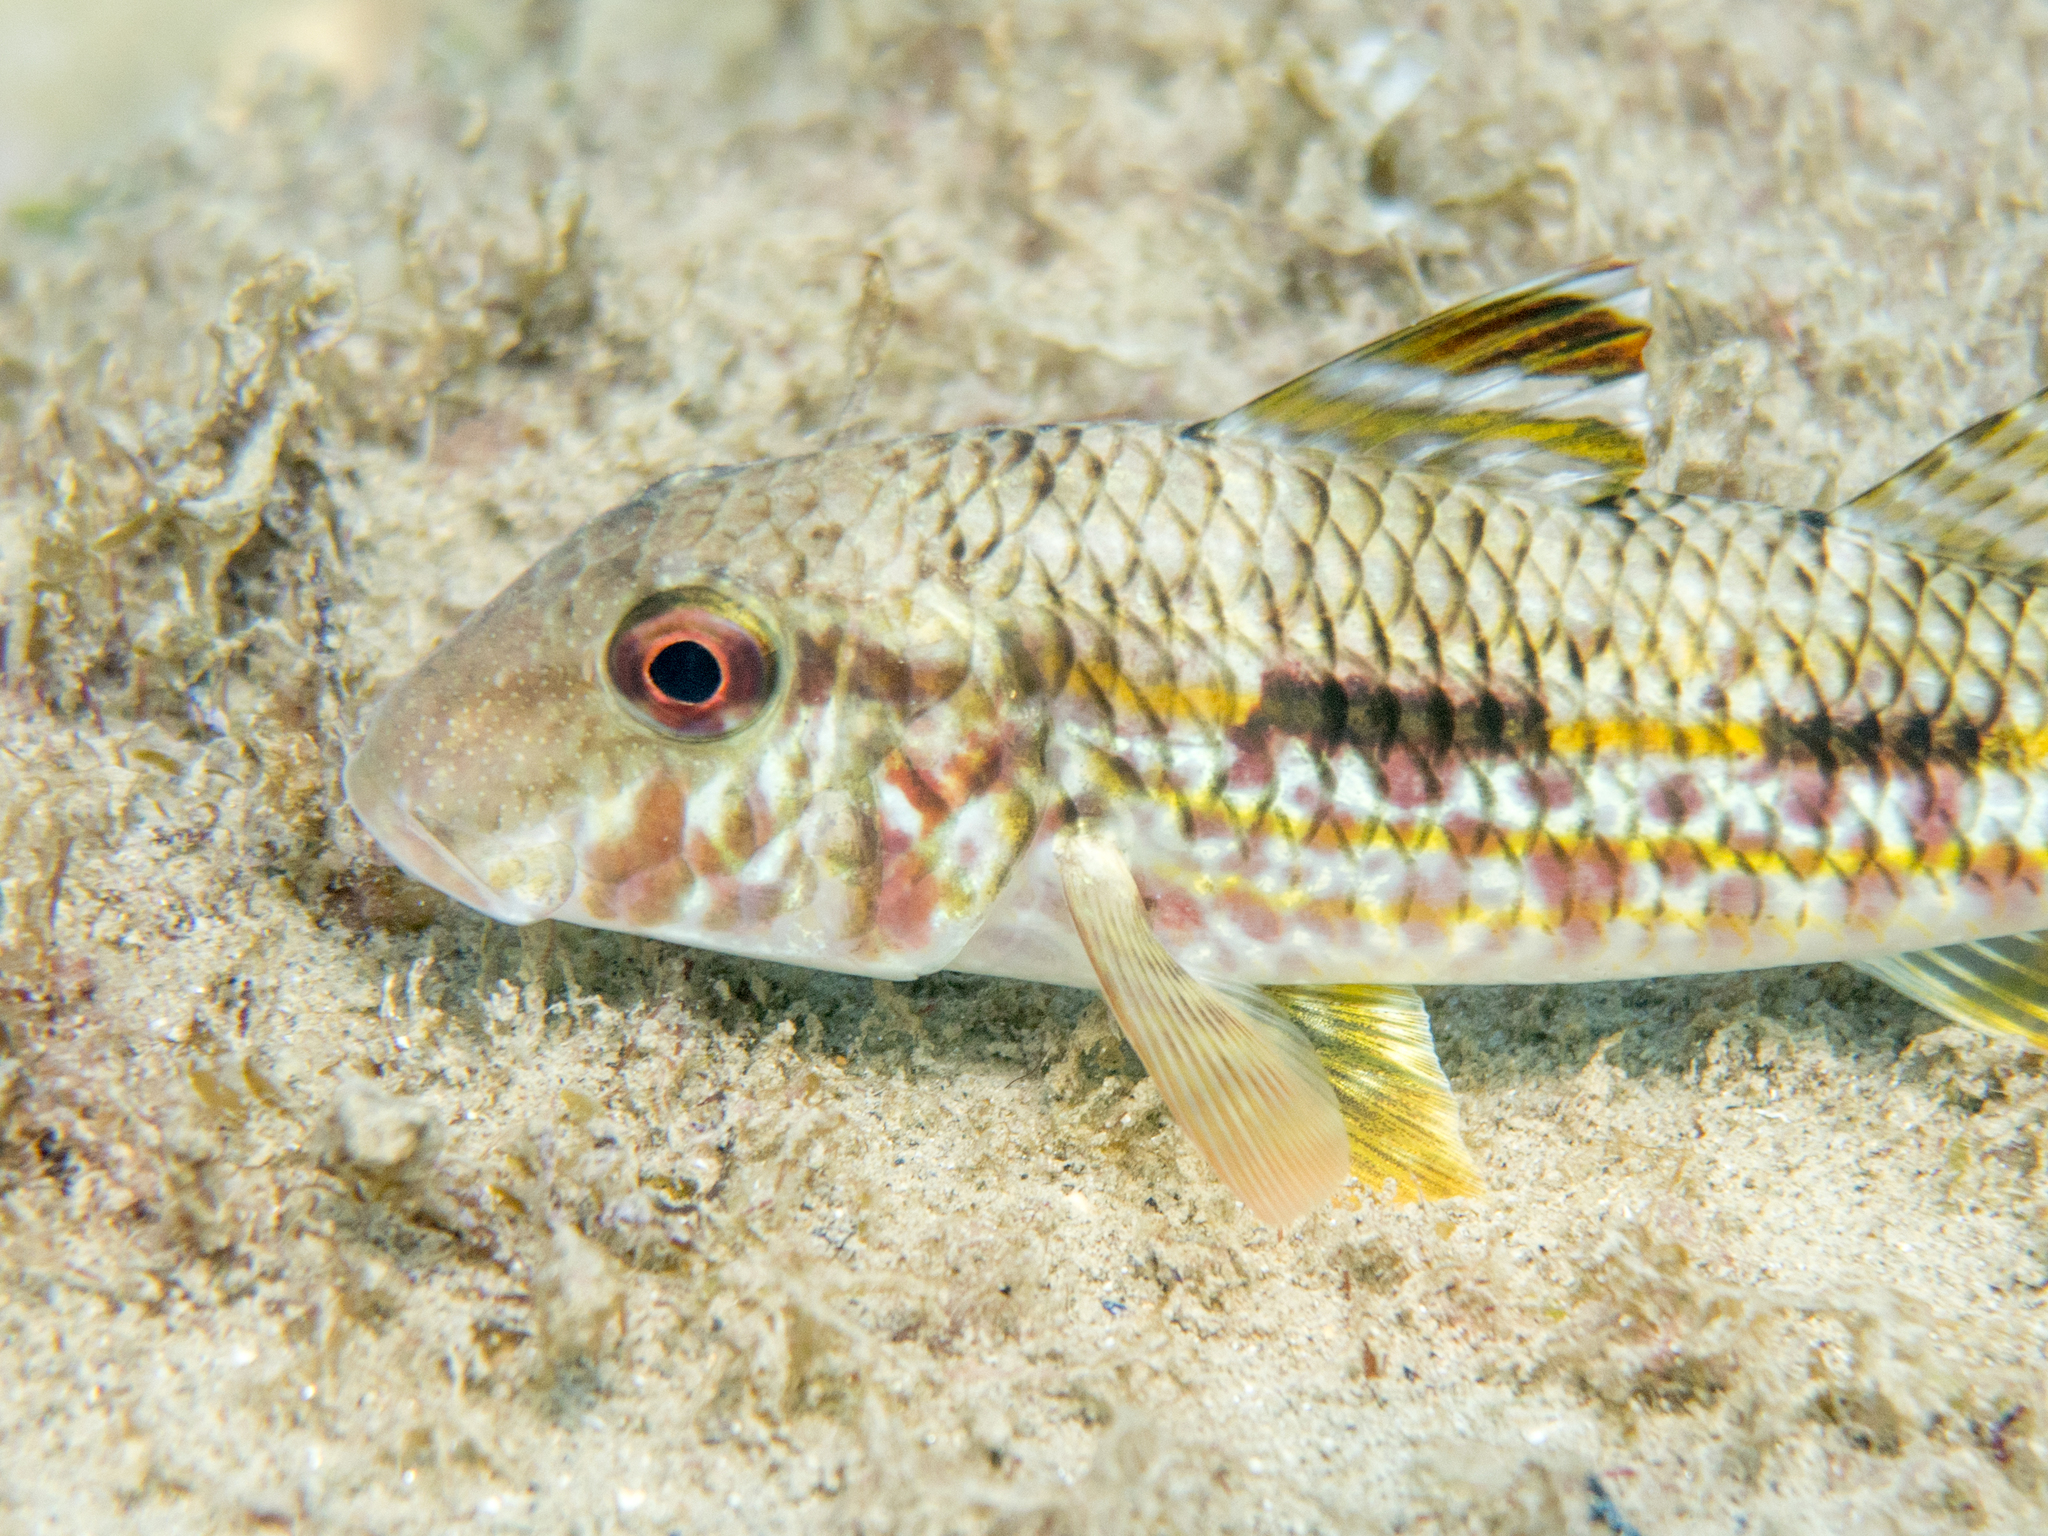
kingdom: Animalia
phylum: Chordata
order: Perciformes
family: Mullidae
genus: Mullus
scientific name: Mullus surmuletus
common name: Red mullet
